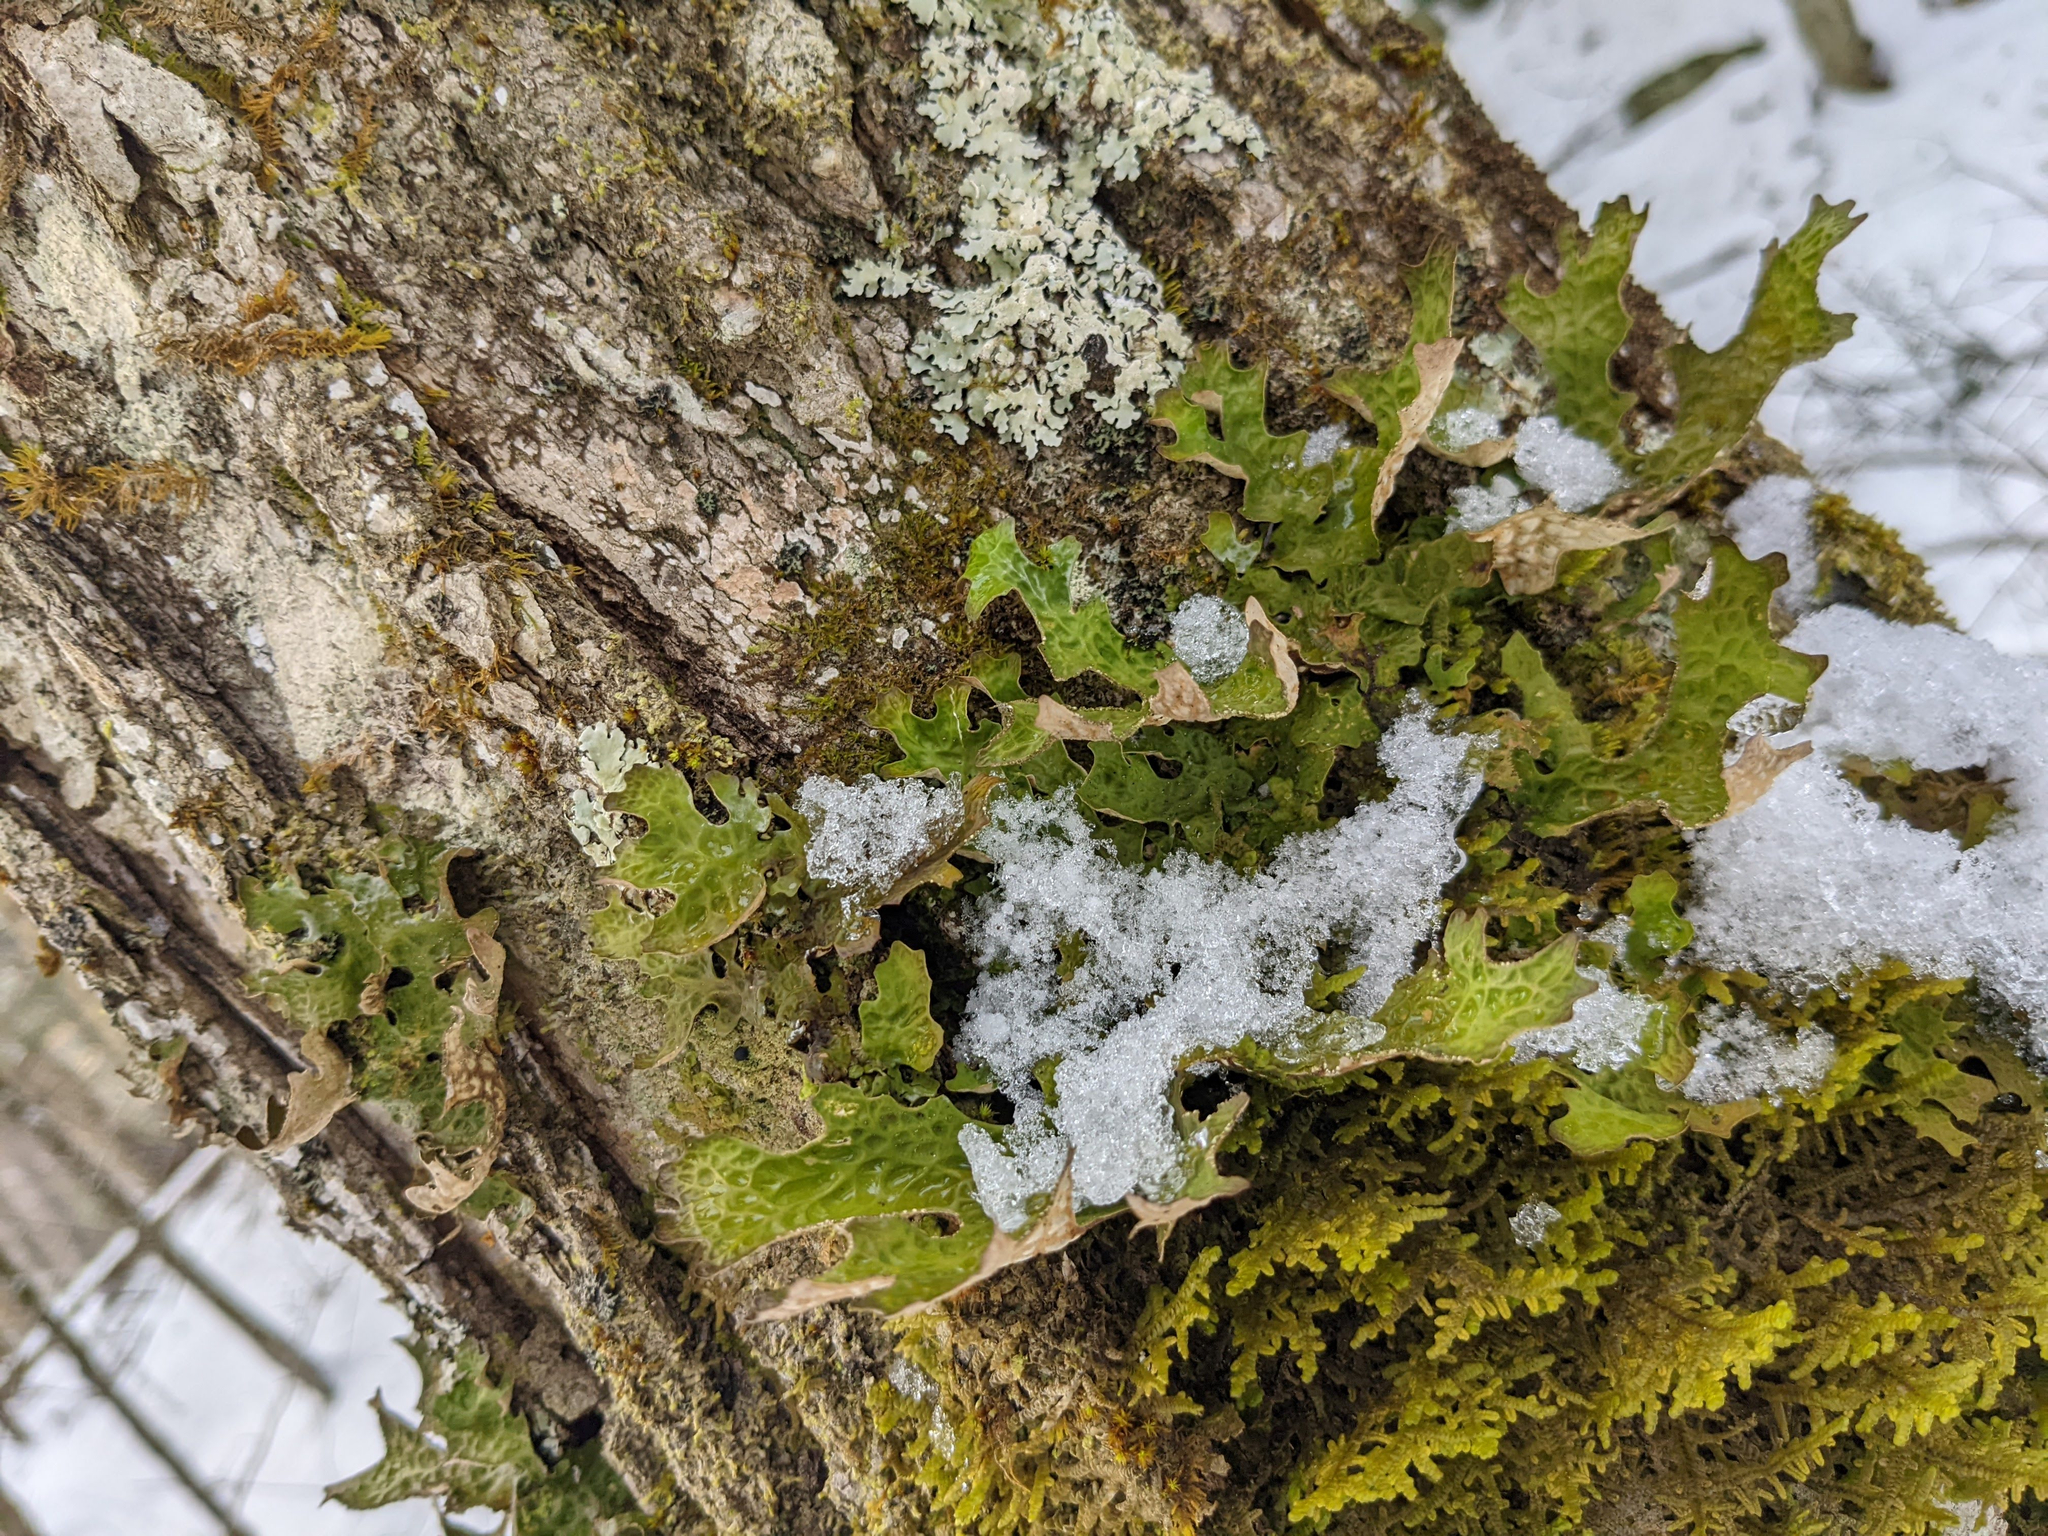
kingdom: Fungi
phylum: Ascomycota
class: Lecanoromycetes
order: Peltigerales
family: Lobariaceae
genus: Lobaria
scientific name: Lobaria pulmonaria
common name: Lungwort
